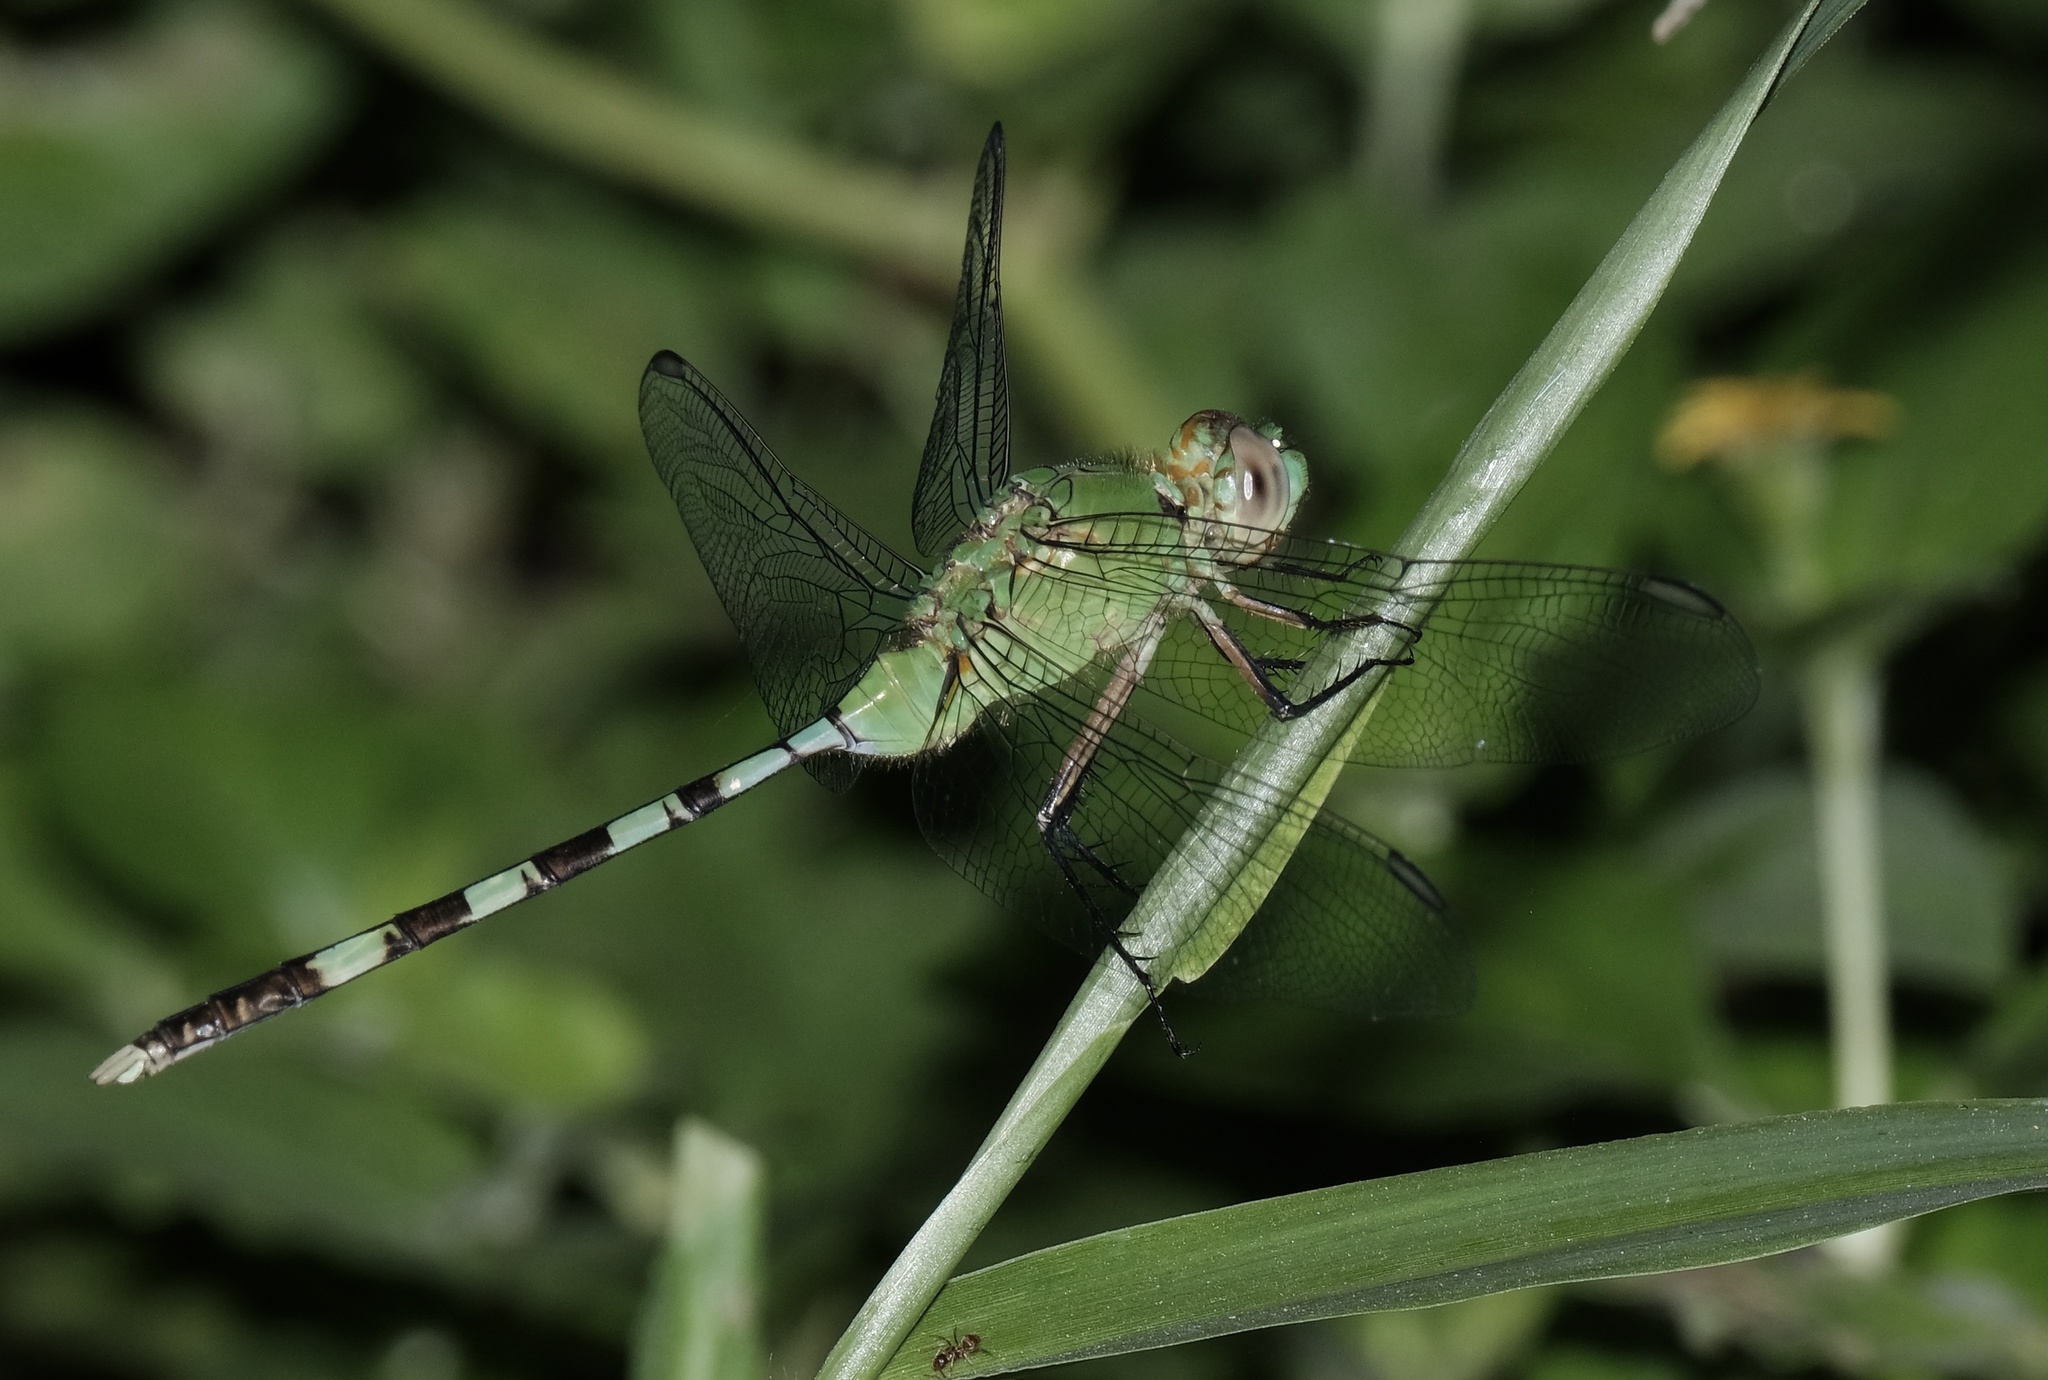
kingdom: Animalia
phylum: Arthropoda
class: Insecta
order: Odonata
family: Libellulidae
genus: Erythemis
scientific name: Erythemis vesiculosa
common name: Great pondhawk
